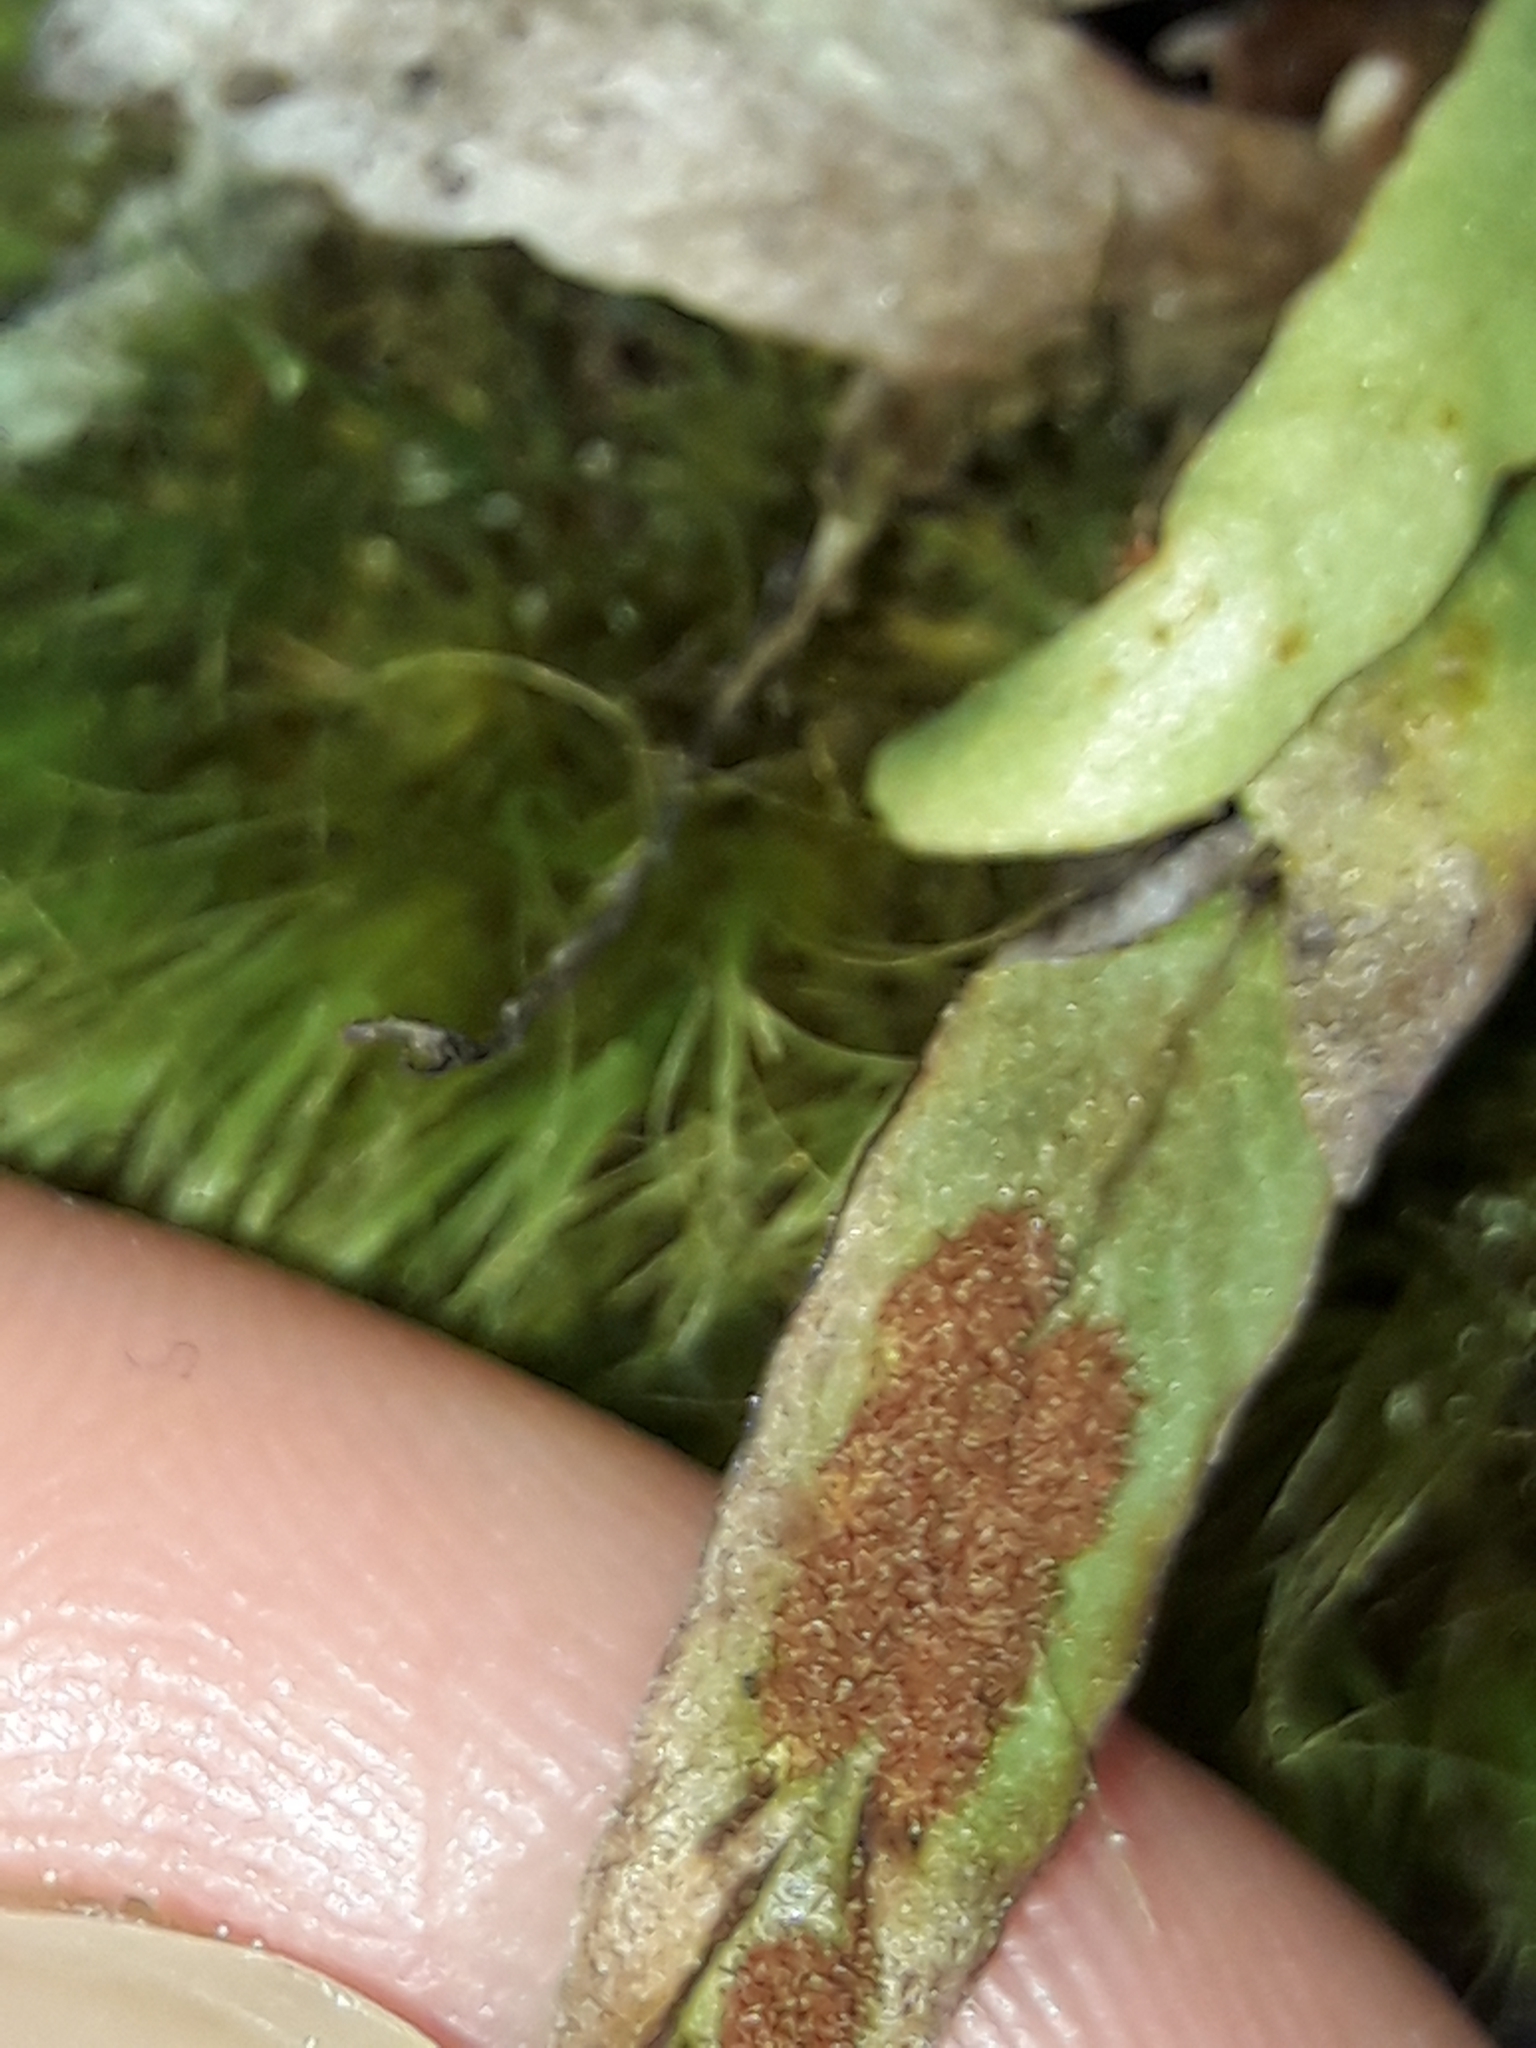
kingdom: Plantae
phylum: Tracheophyta
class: Polypodiopsida
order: Polypodiales
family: Polypodiaceae
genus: Notogrammitis
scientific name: Notogrammitis billardierei
